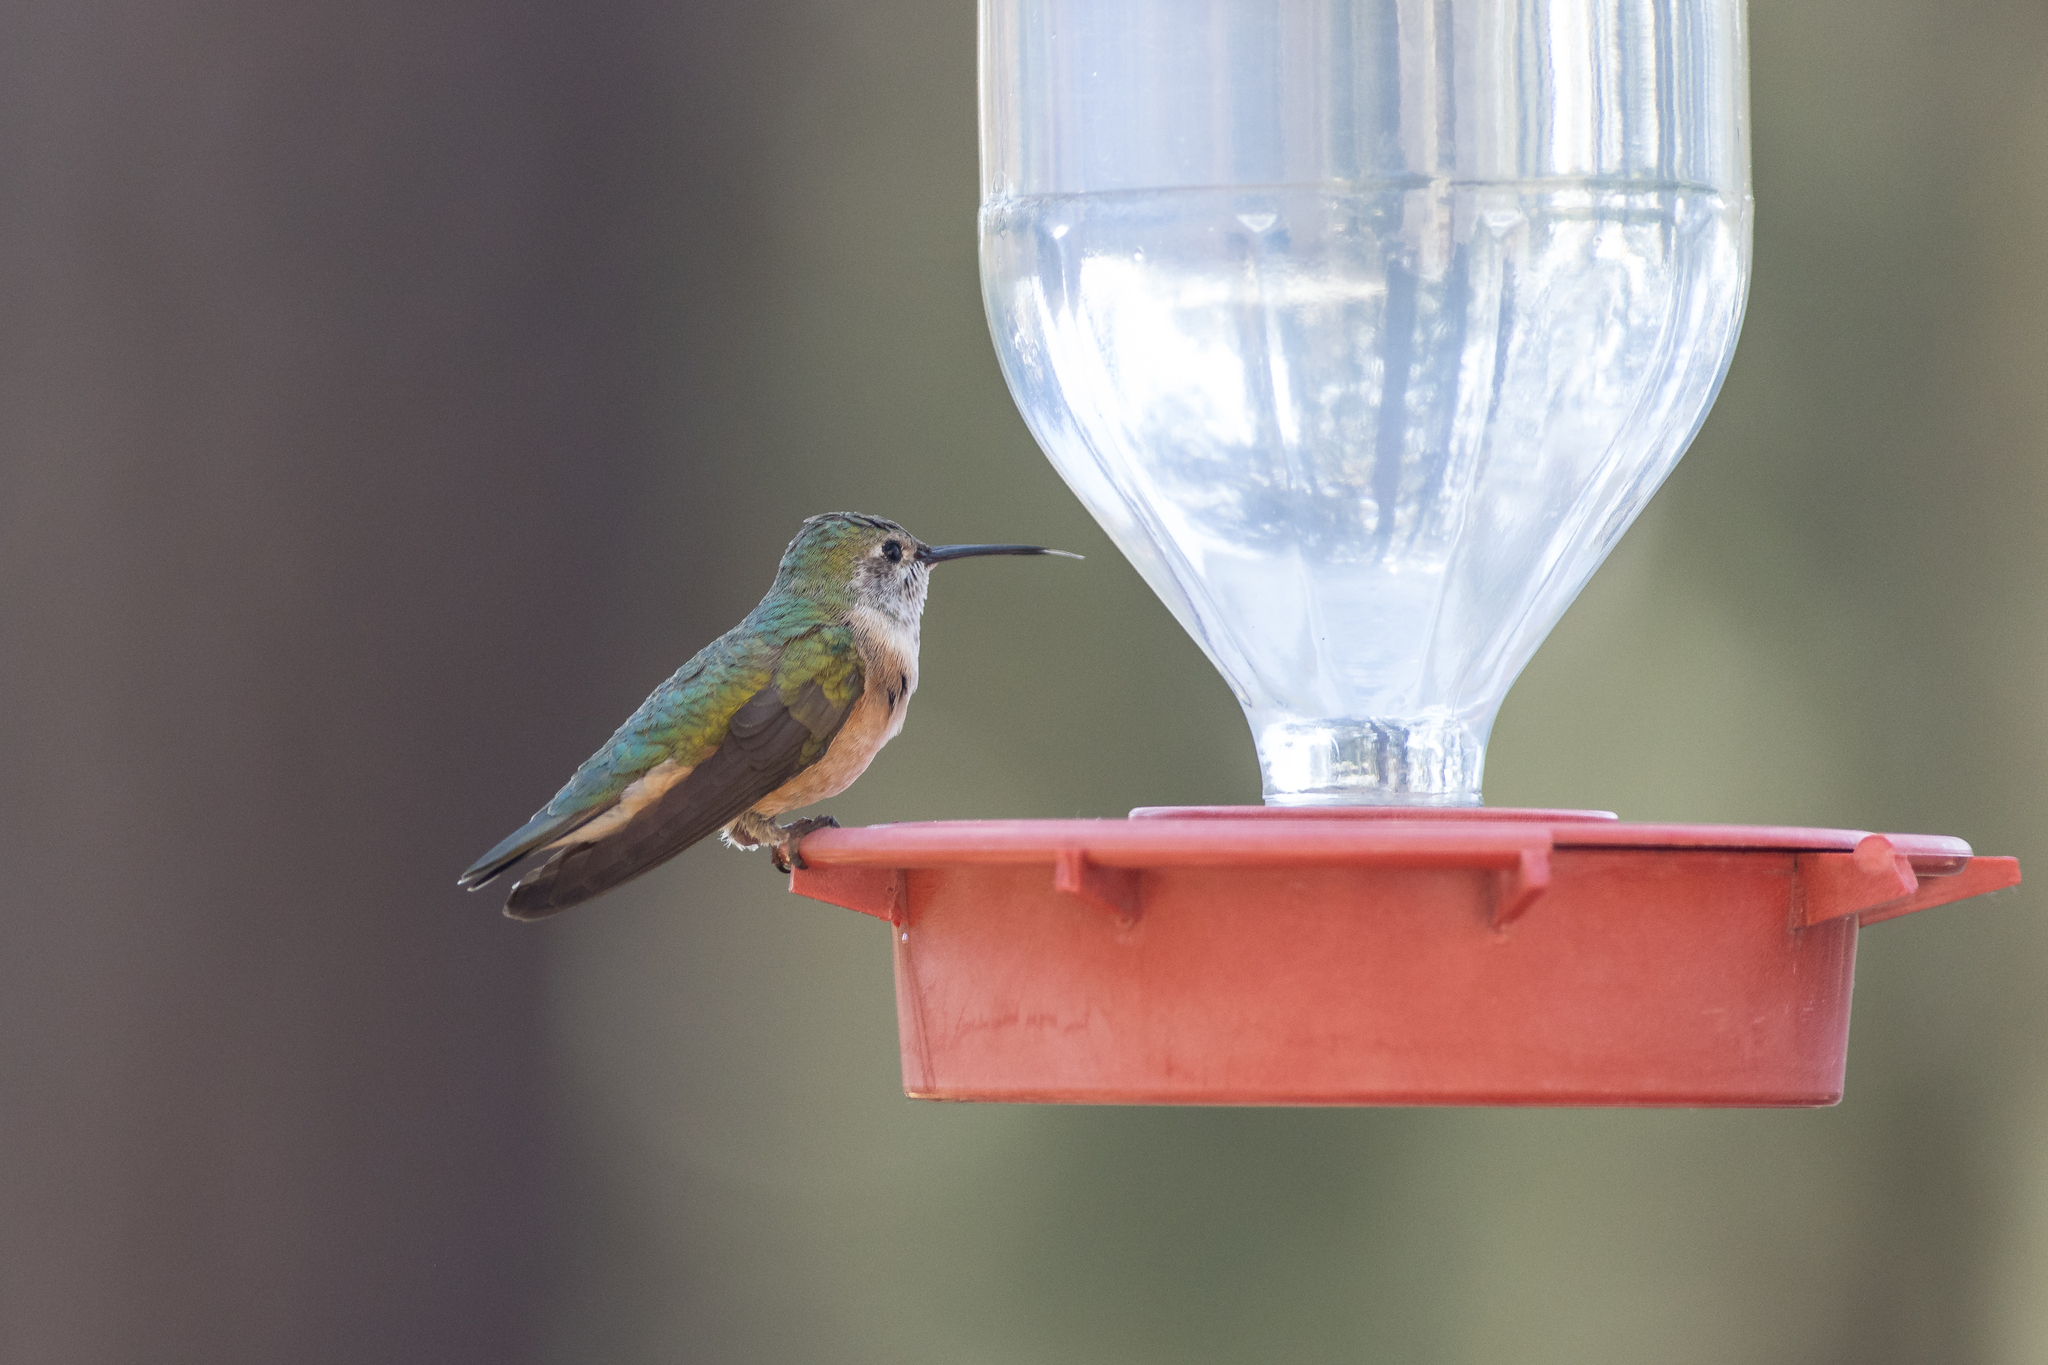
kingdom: Animalia
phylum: Chordata
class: Aves
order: Apodiformes
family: Trochilidae
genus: Selasphorus
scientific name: Selasphorus platycercus
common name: Broad-tailed hummingbird
